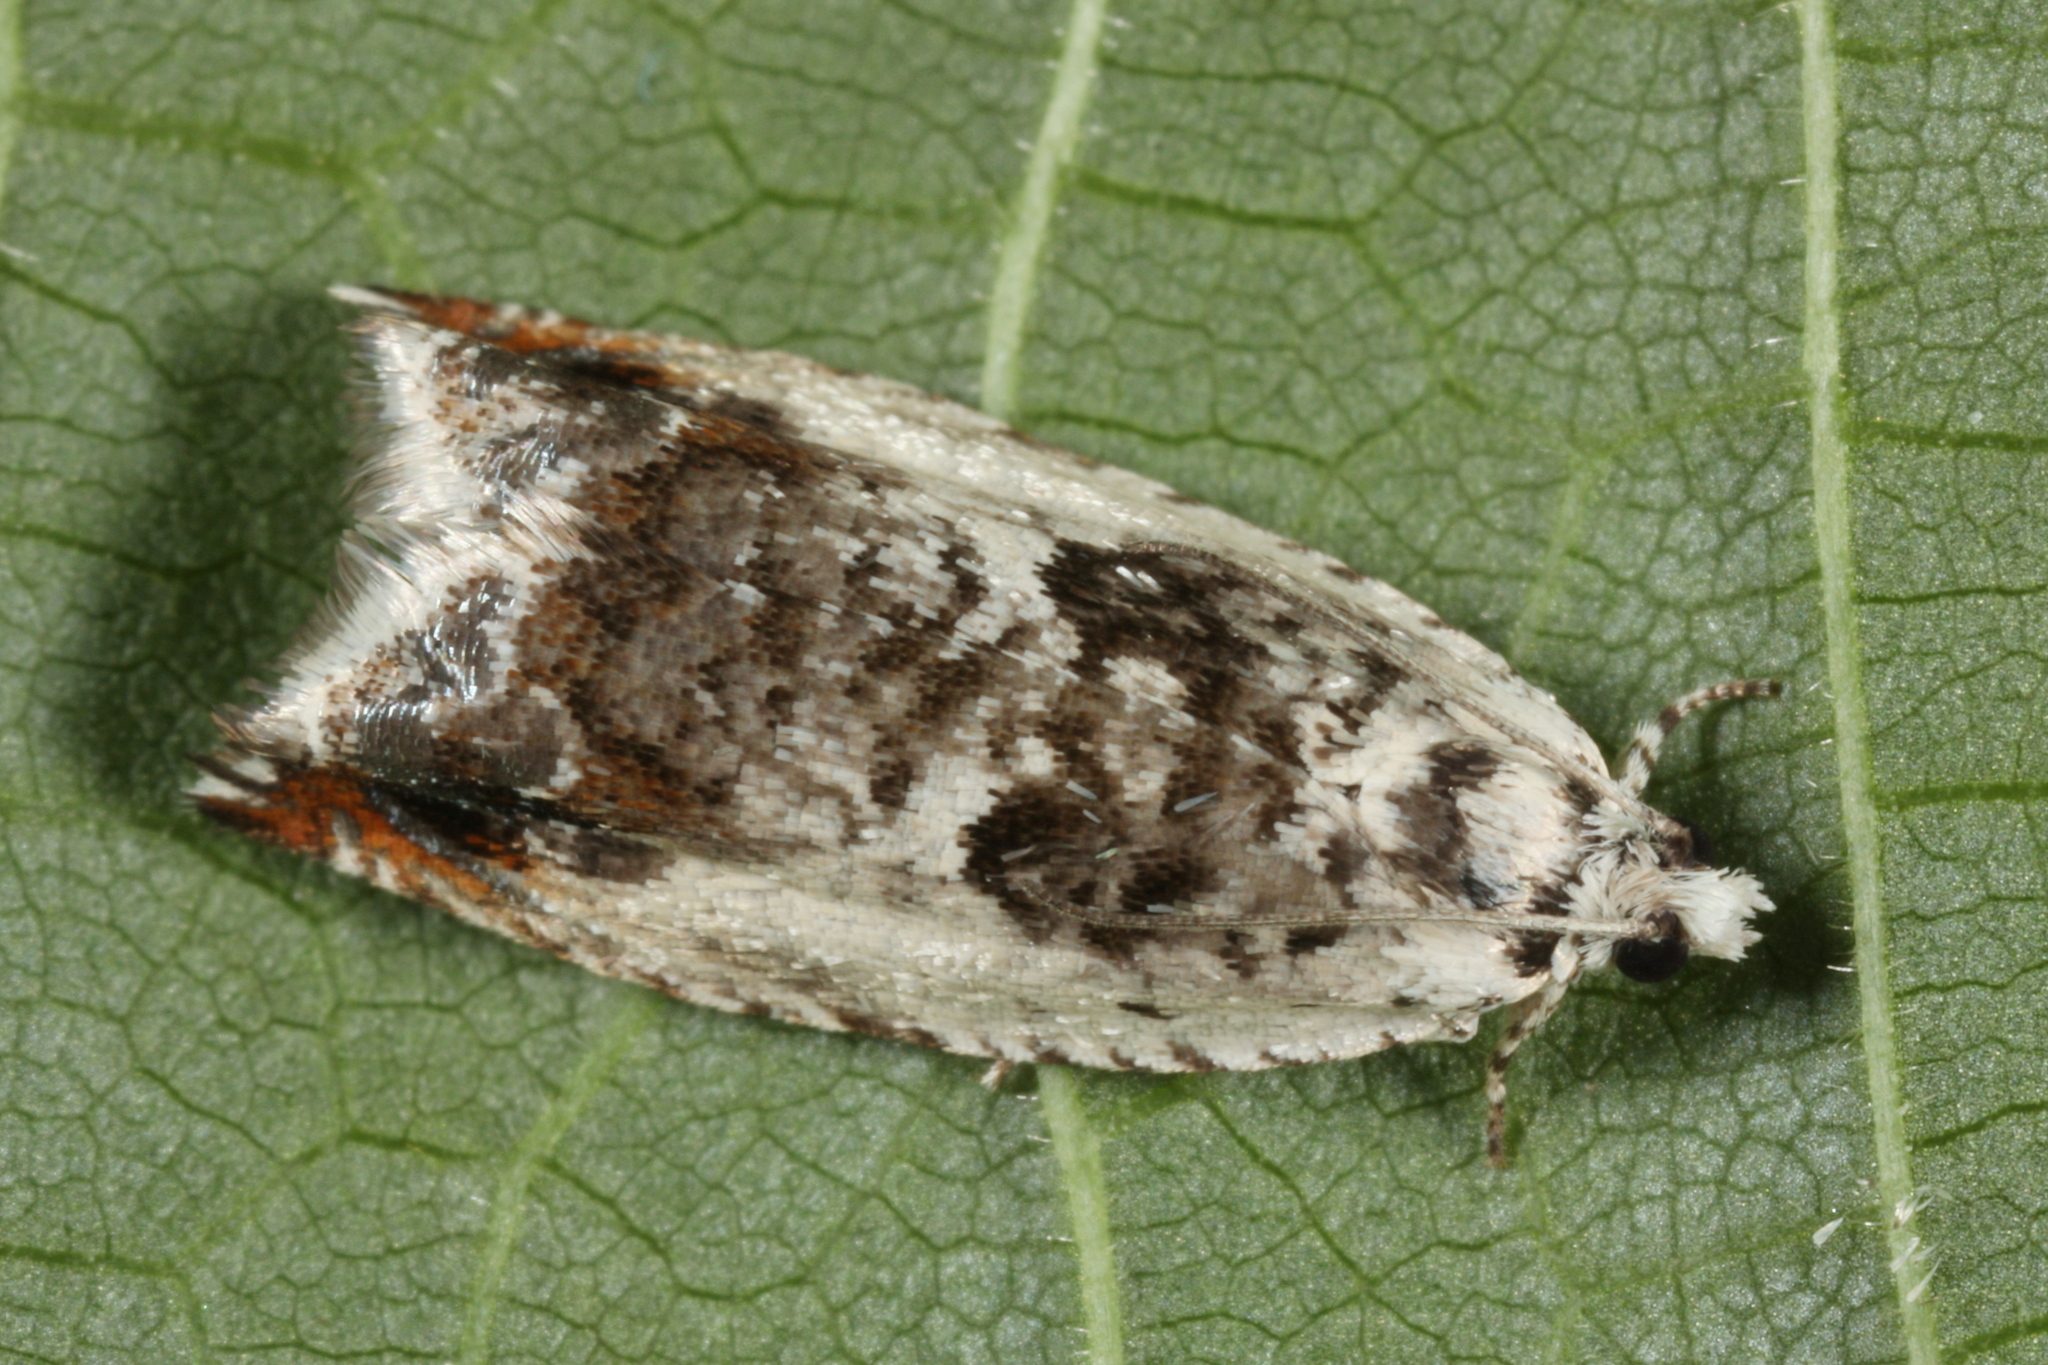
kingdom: Animalia
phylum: Arthropoda
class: Insecta
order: Lepidoptera
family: Tortricidae
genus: Ancylis
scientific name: Ancylis laetana
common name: Aspen roller
